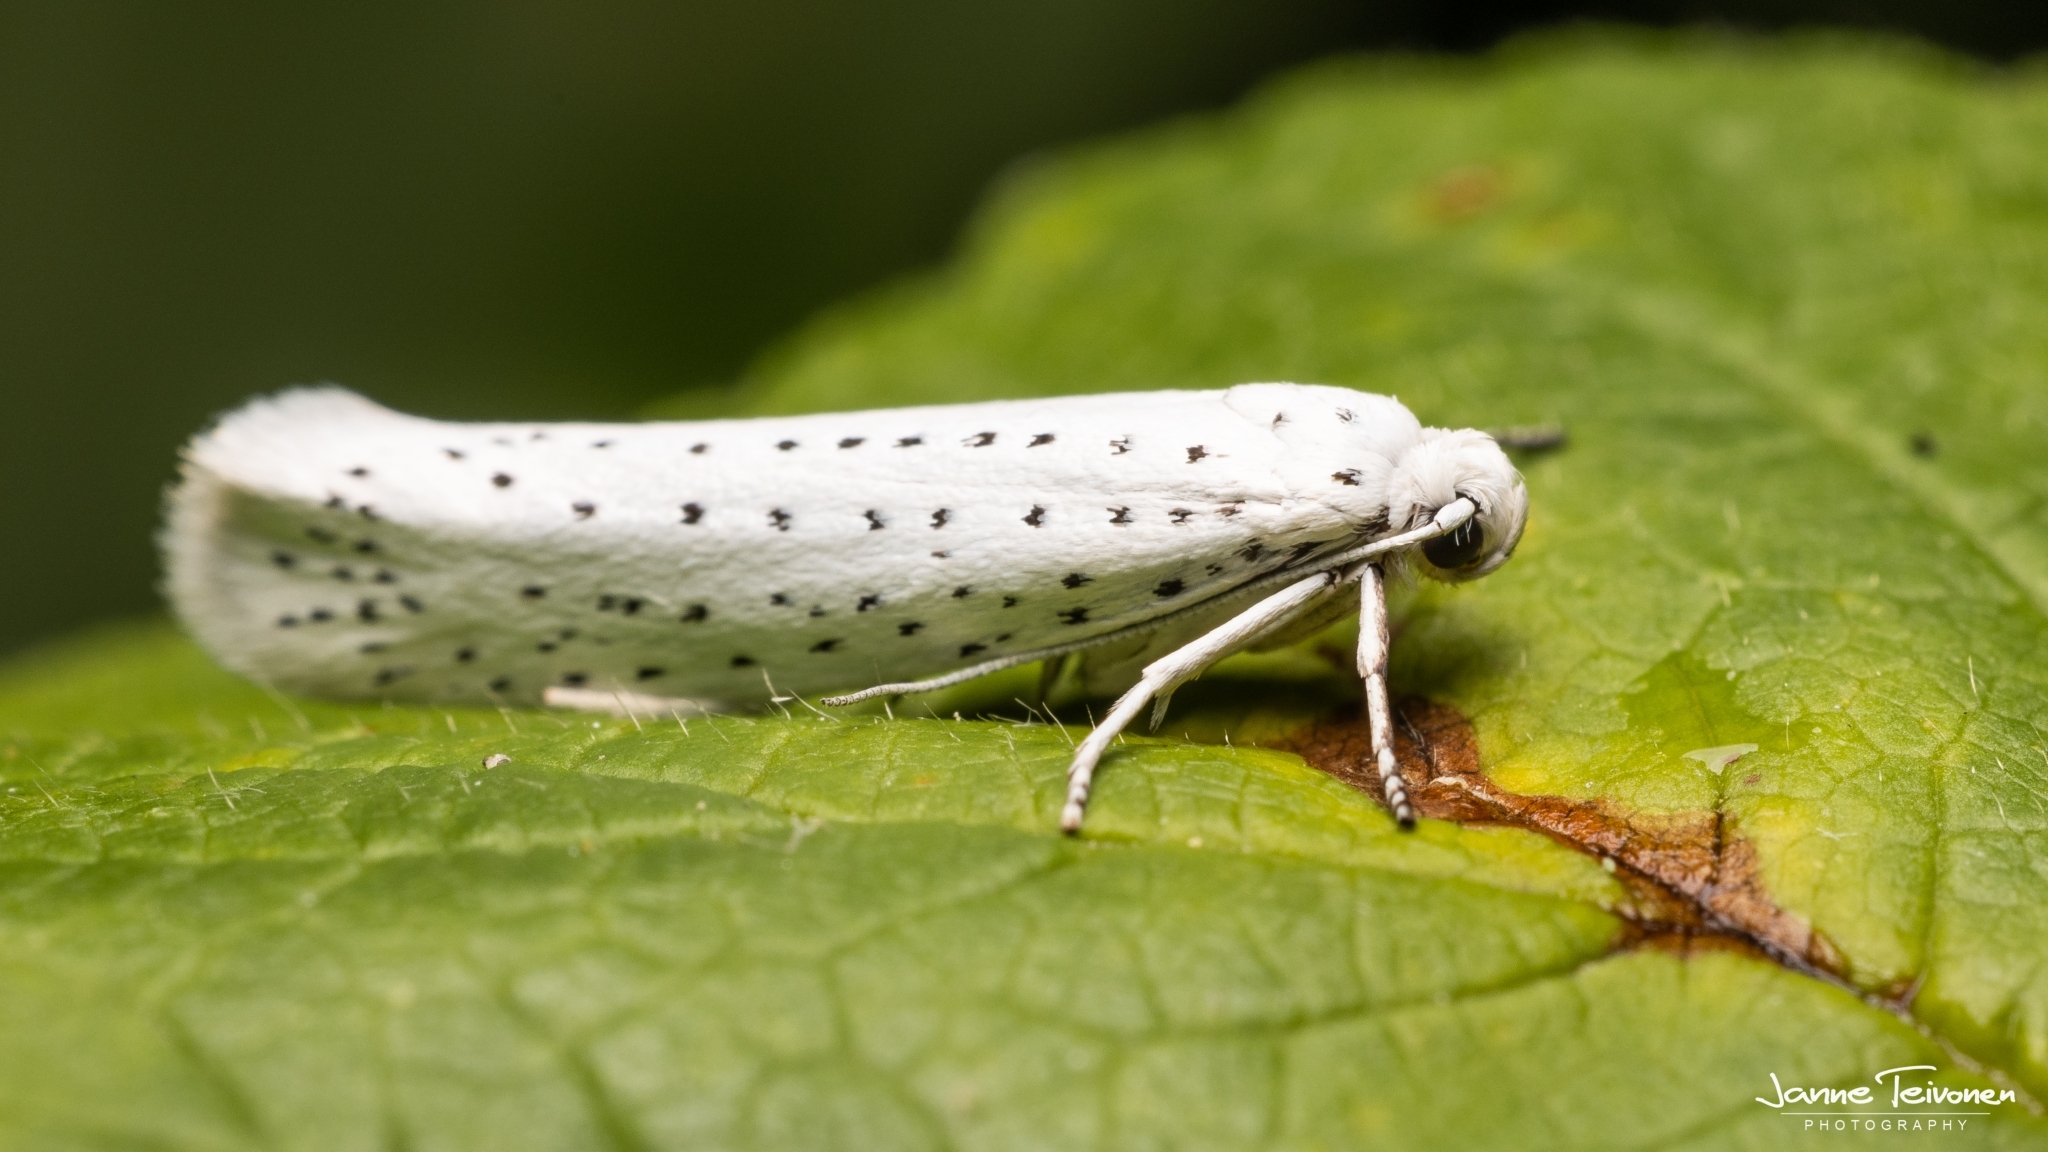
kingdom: Animalia
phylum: Arthropoda
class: Insecta
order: Lepidoptera
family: Yponomeutidae
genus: Yponomeuta
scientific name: Yponomeuta evonymella
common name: Bird-cherry ermine
